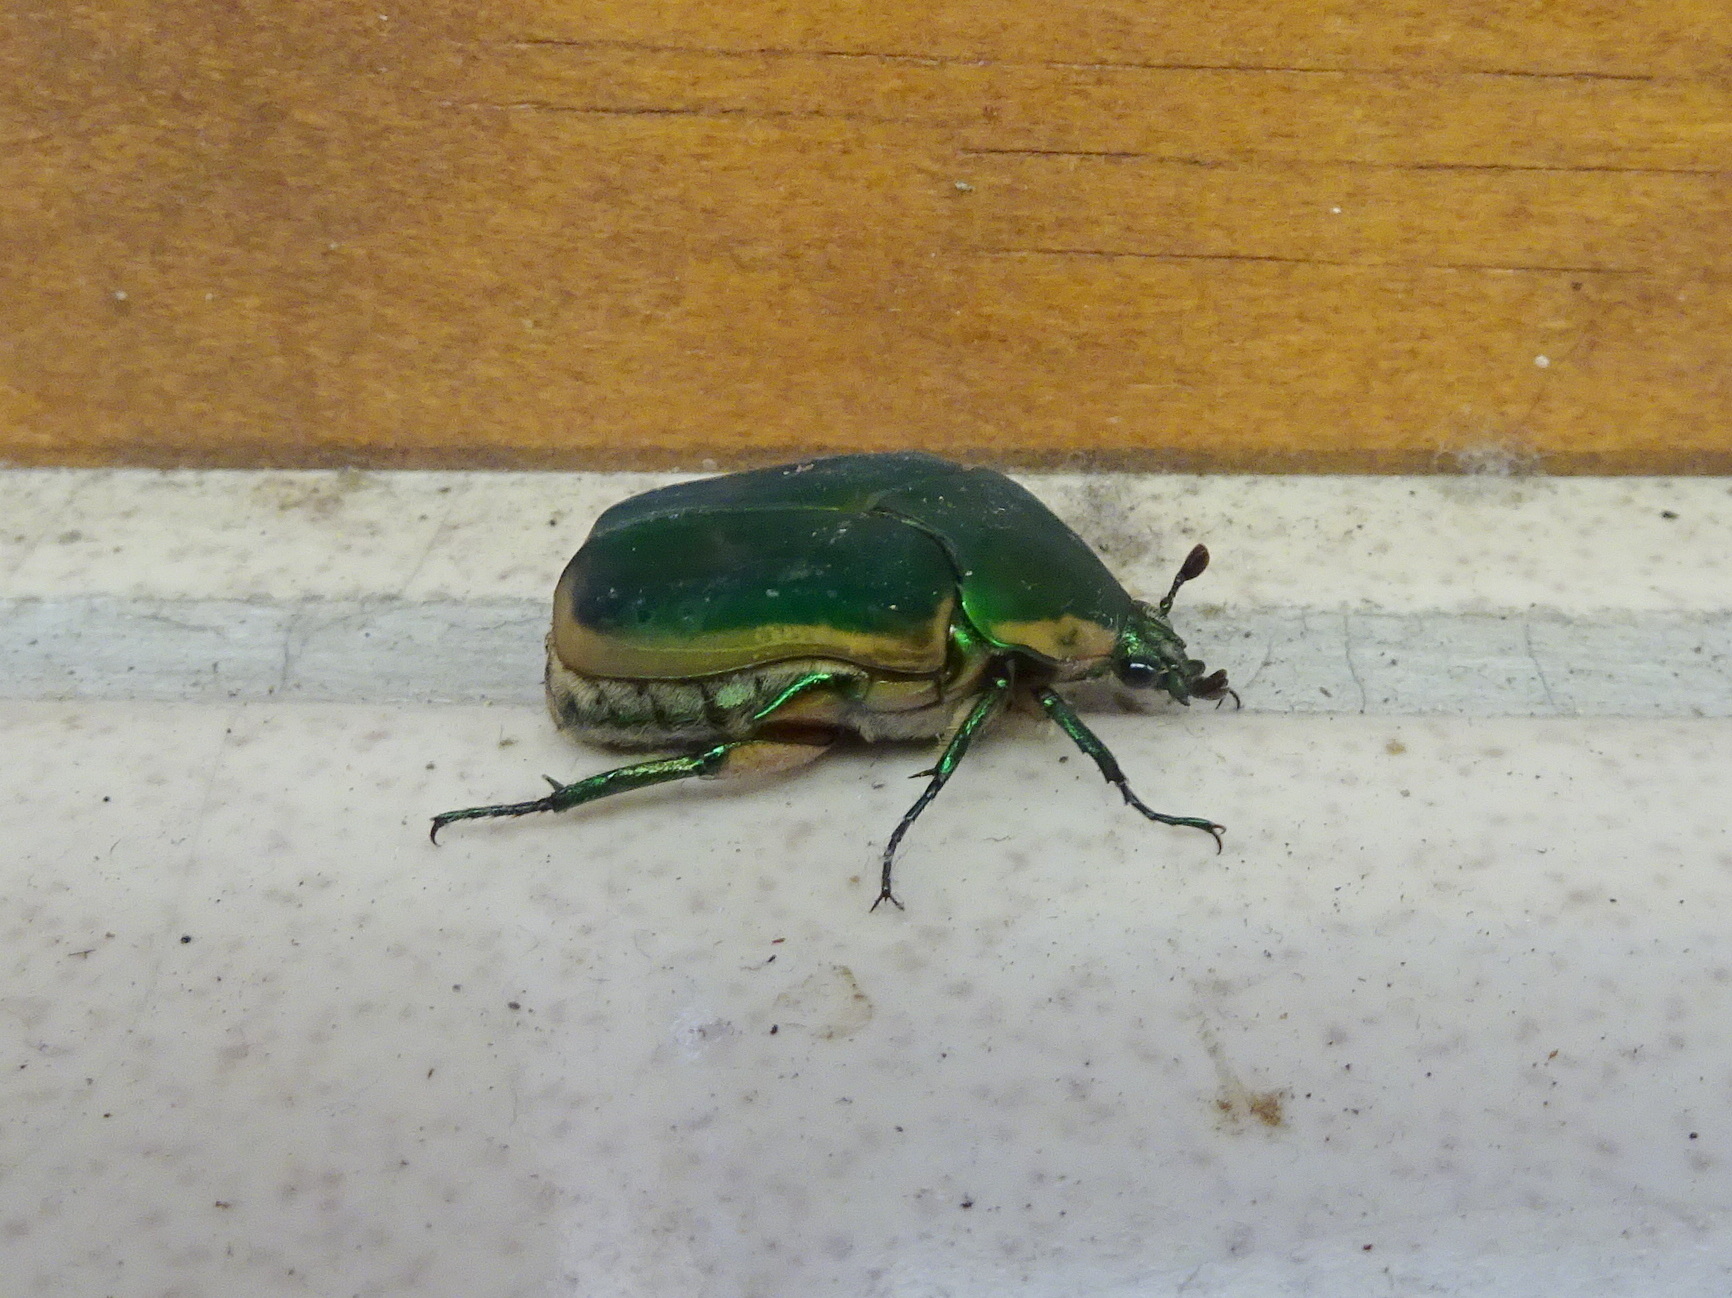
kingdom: Animalia
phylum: Arthropoda
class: Insecta
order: Coleoptera
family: Scarabaeidae
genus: Cotinis
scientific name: Cotinis nitida
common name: Common green june beetle
